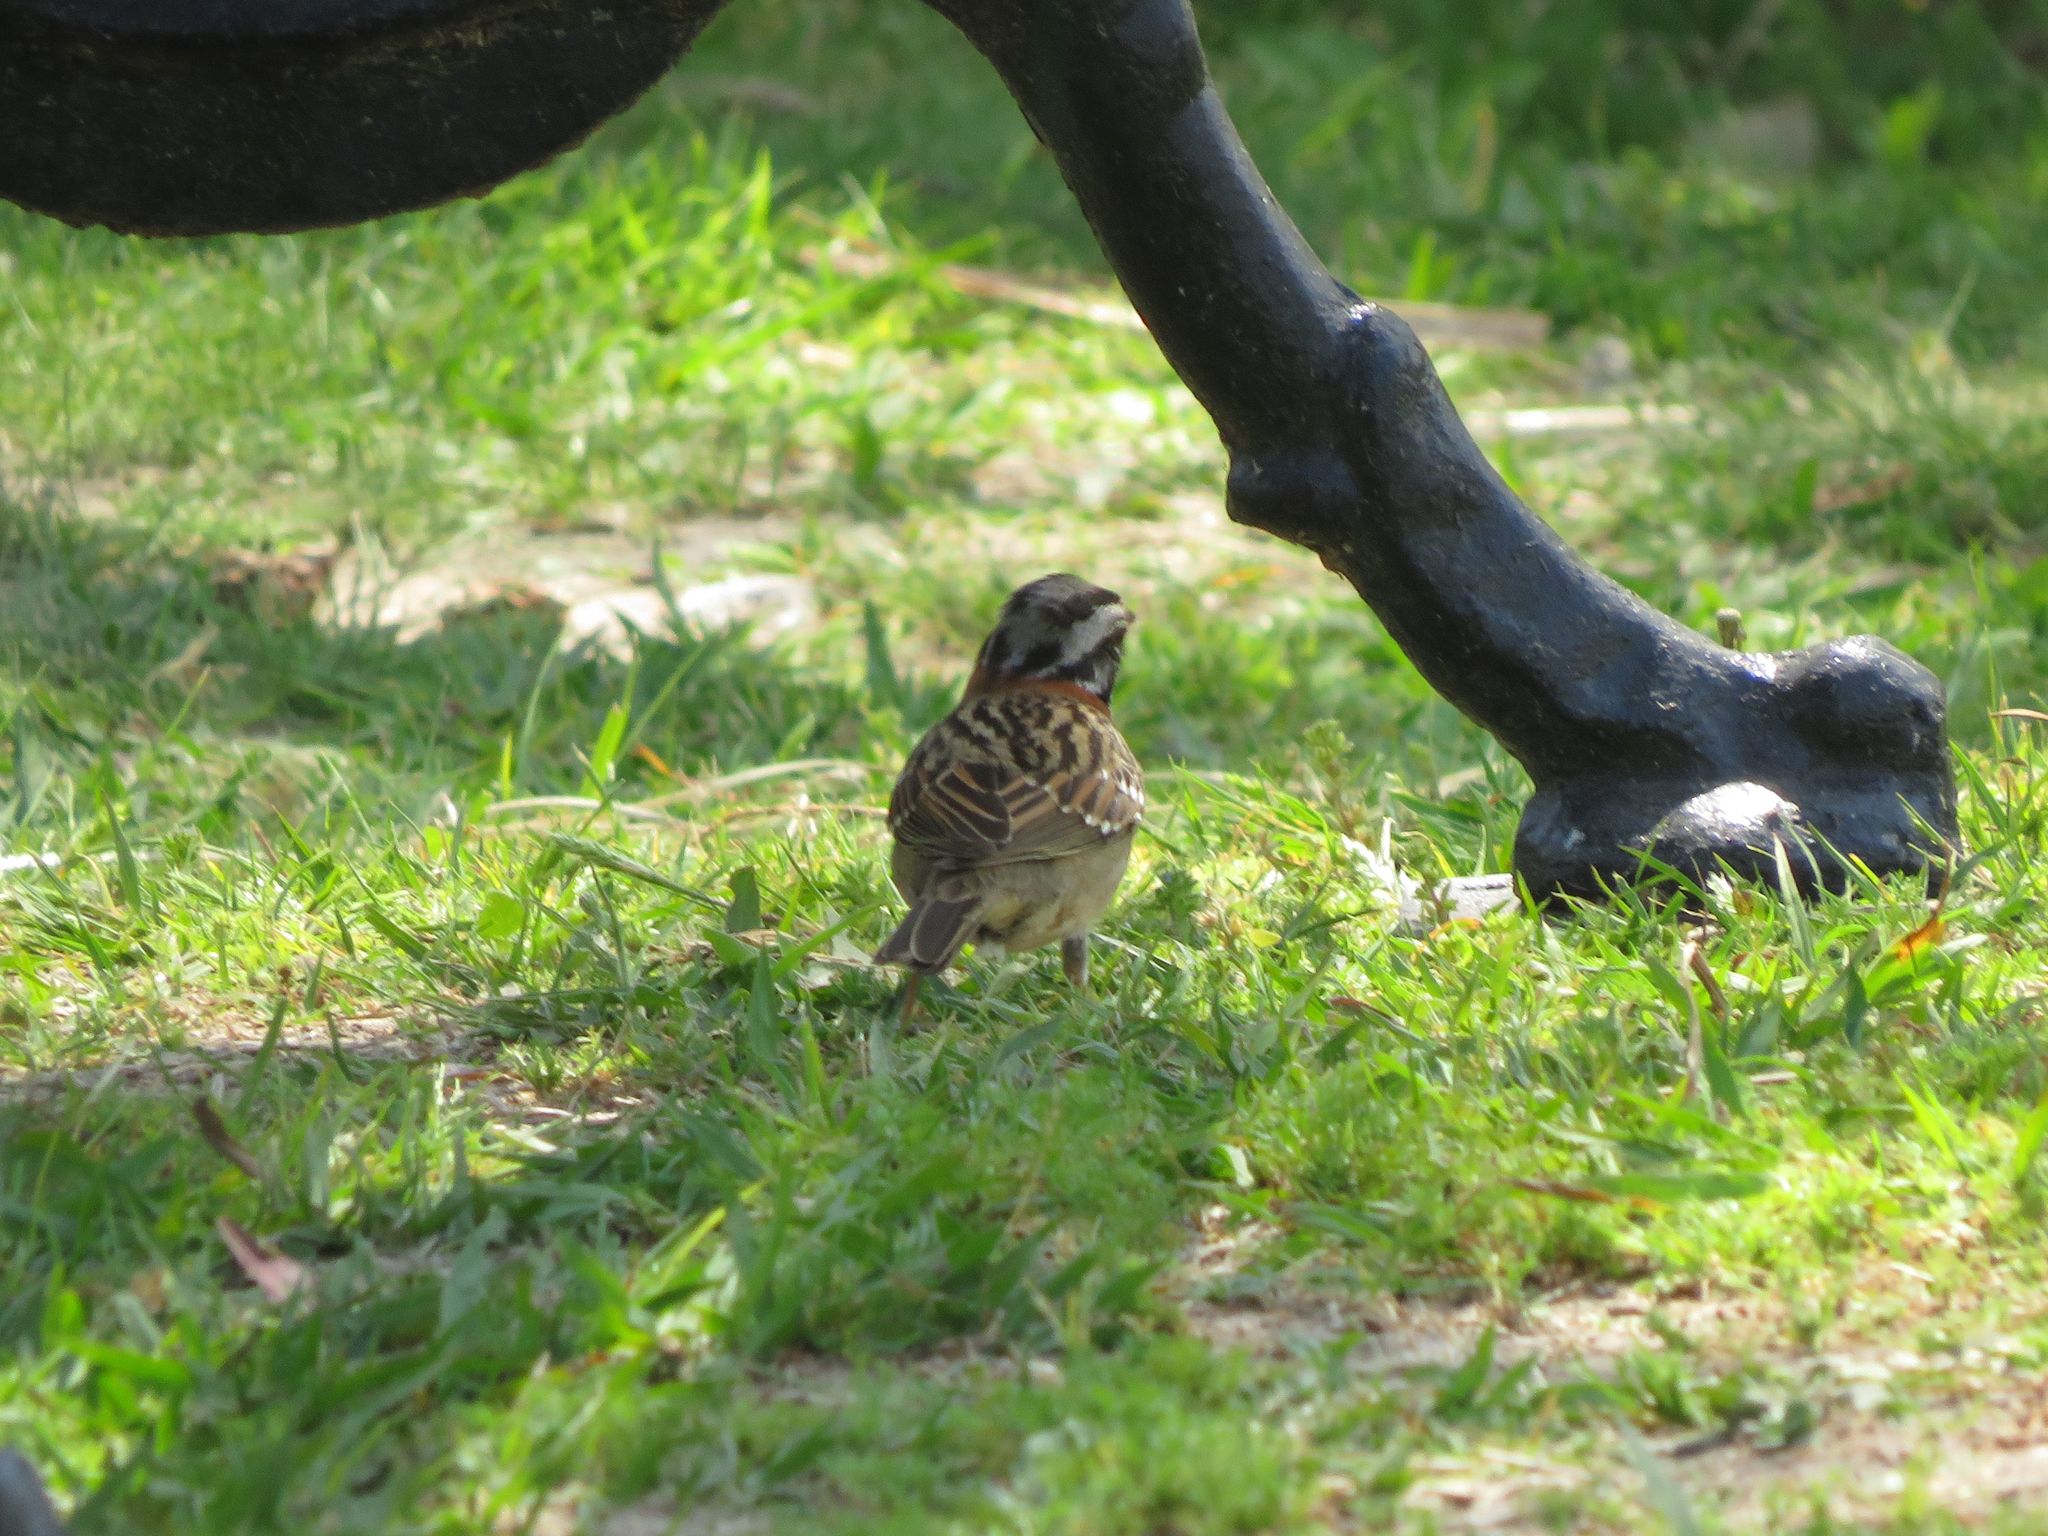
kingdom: Animalia
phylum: Chordata
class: Aves
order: Passeriformes
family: Passerellidae
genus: Zonotrichia
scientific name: Zonotrichia capensis
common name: Rufous-collared sparrow
